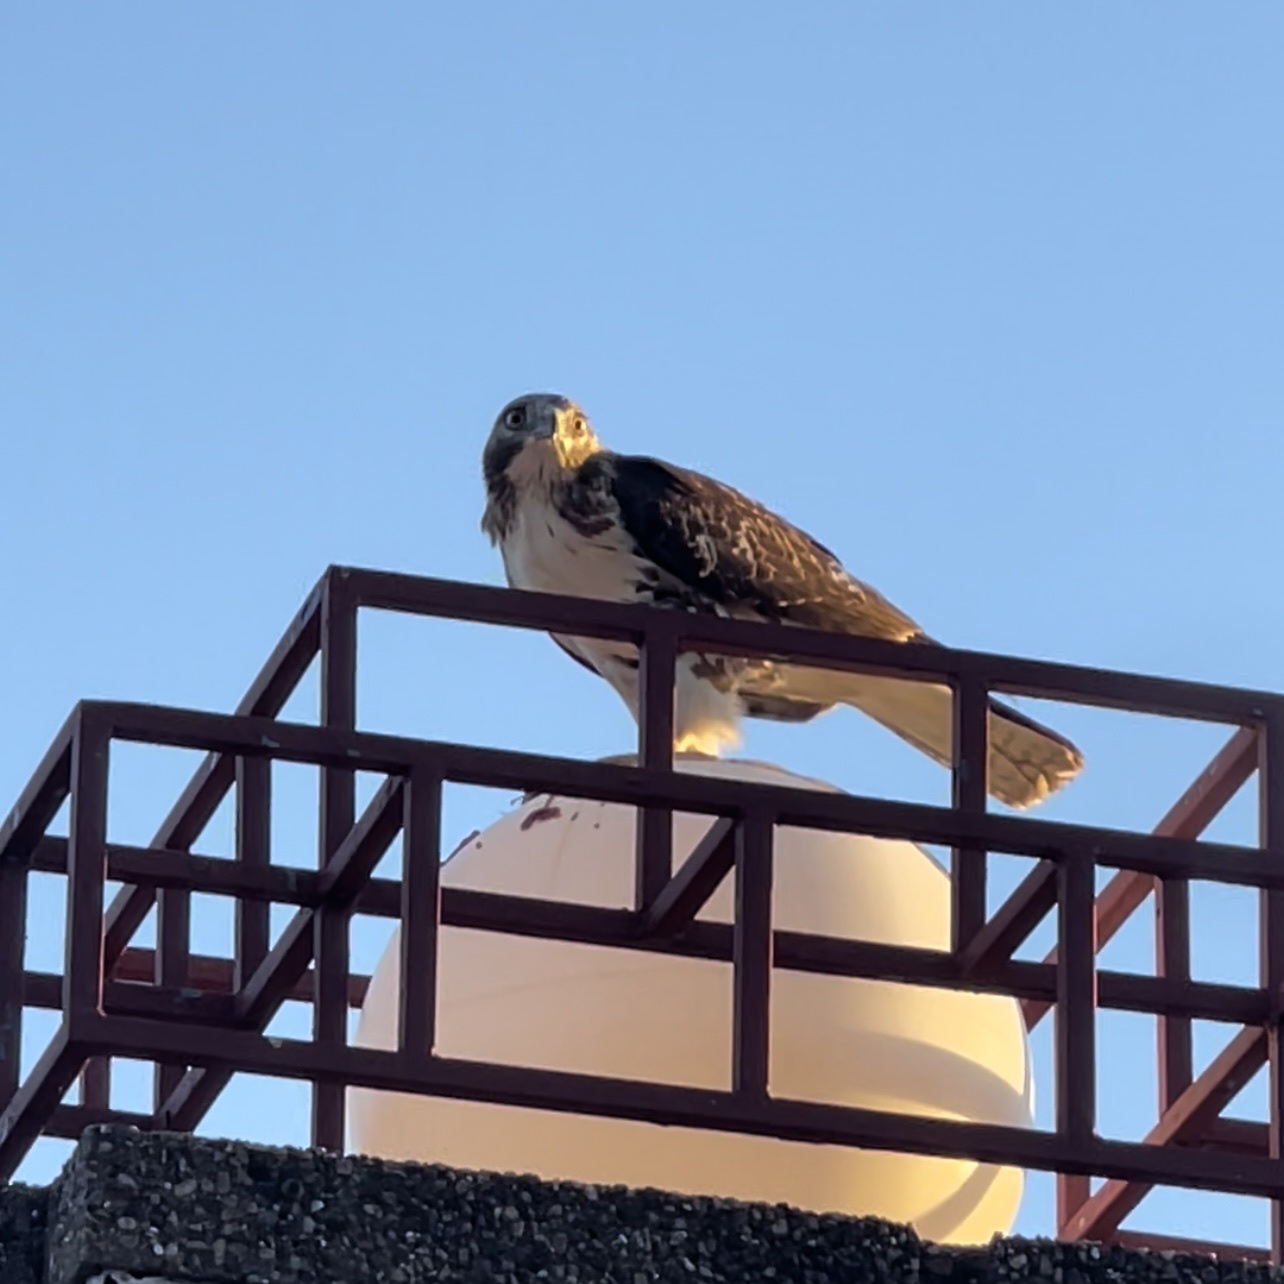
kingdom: Animalia
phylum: Chordata
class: Aves
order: Accipitriformes
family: Accipitridae
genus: Buteo
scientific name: Buteo jamaicensis
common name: Red-tailed hawk
